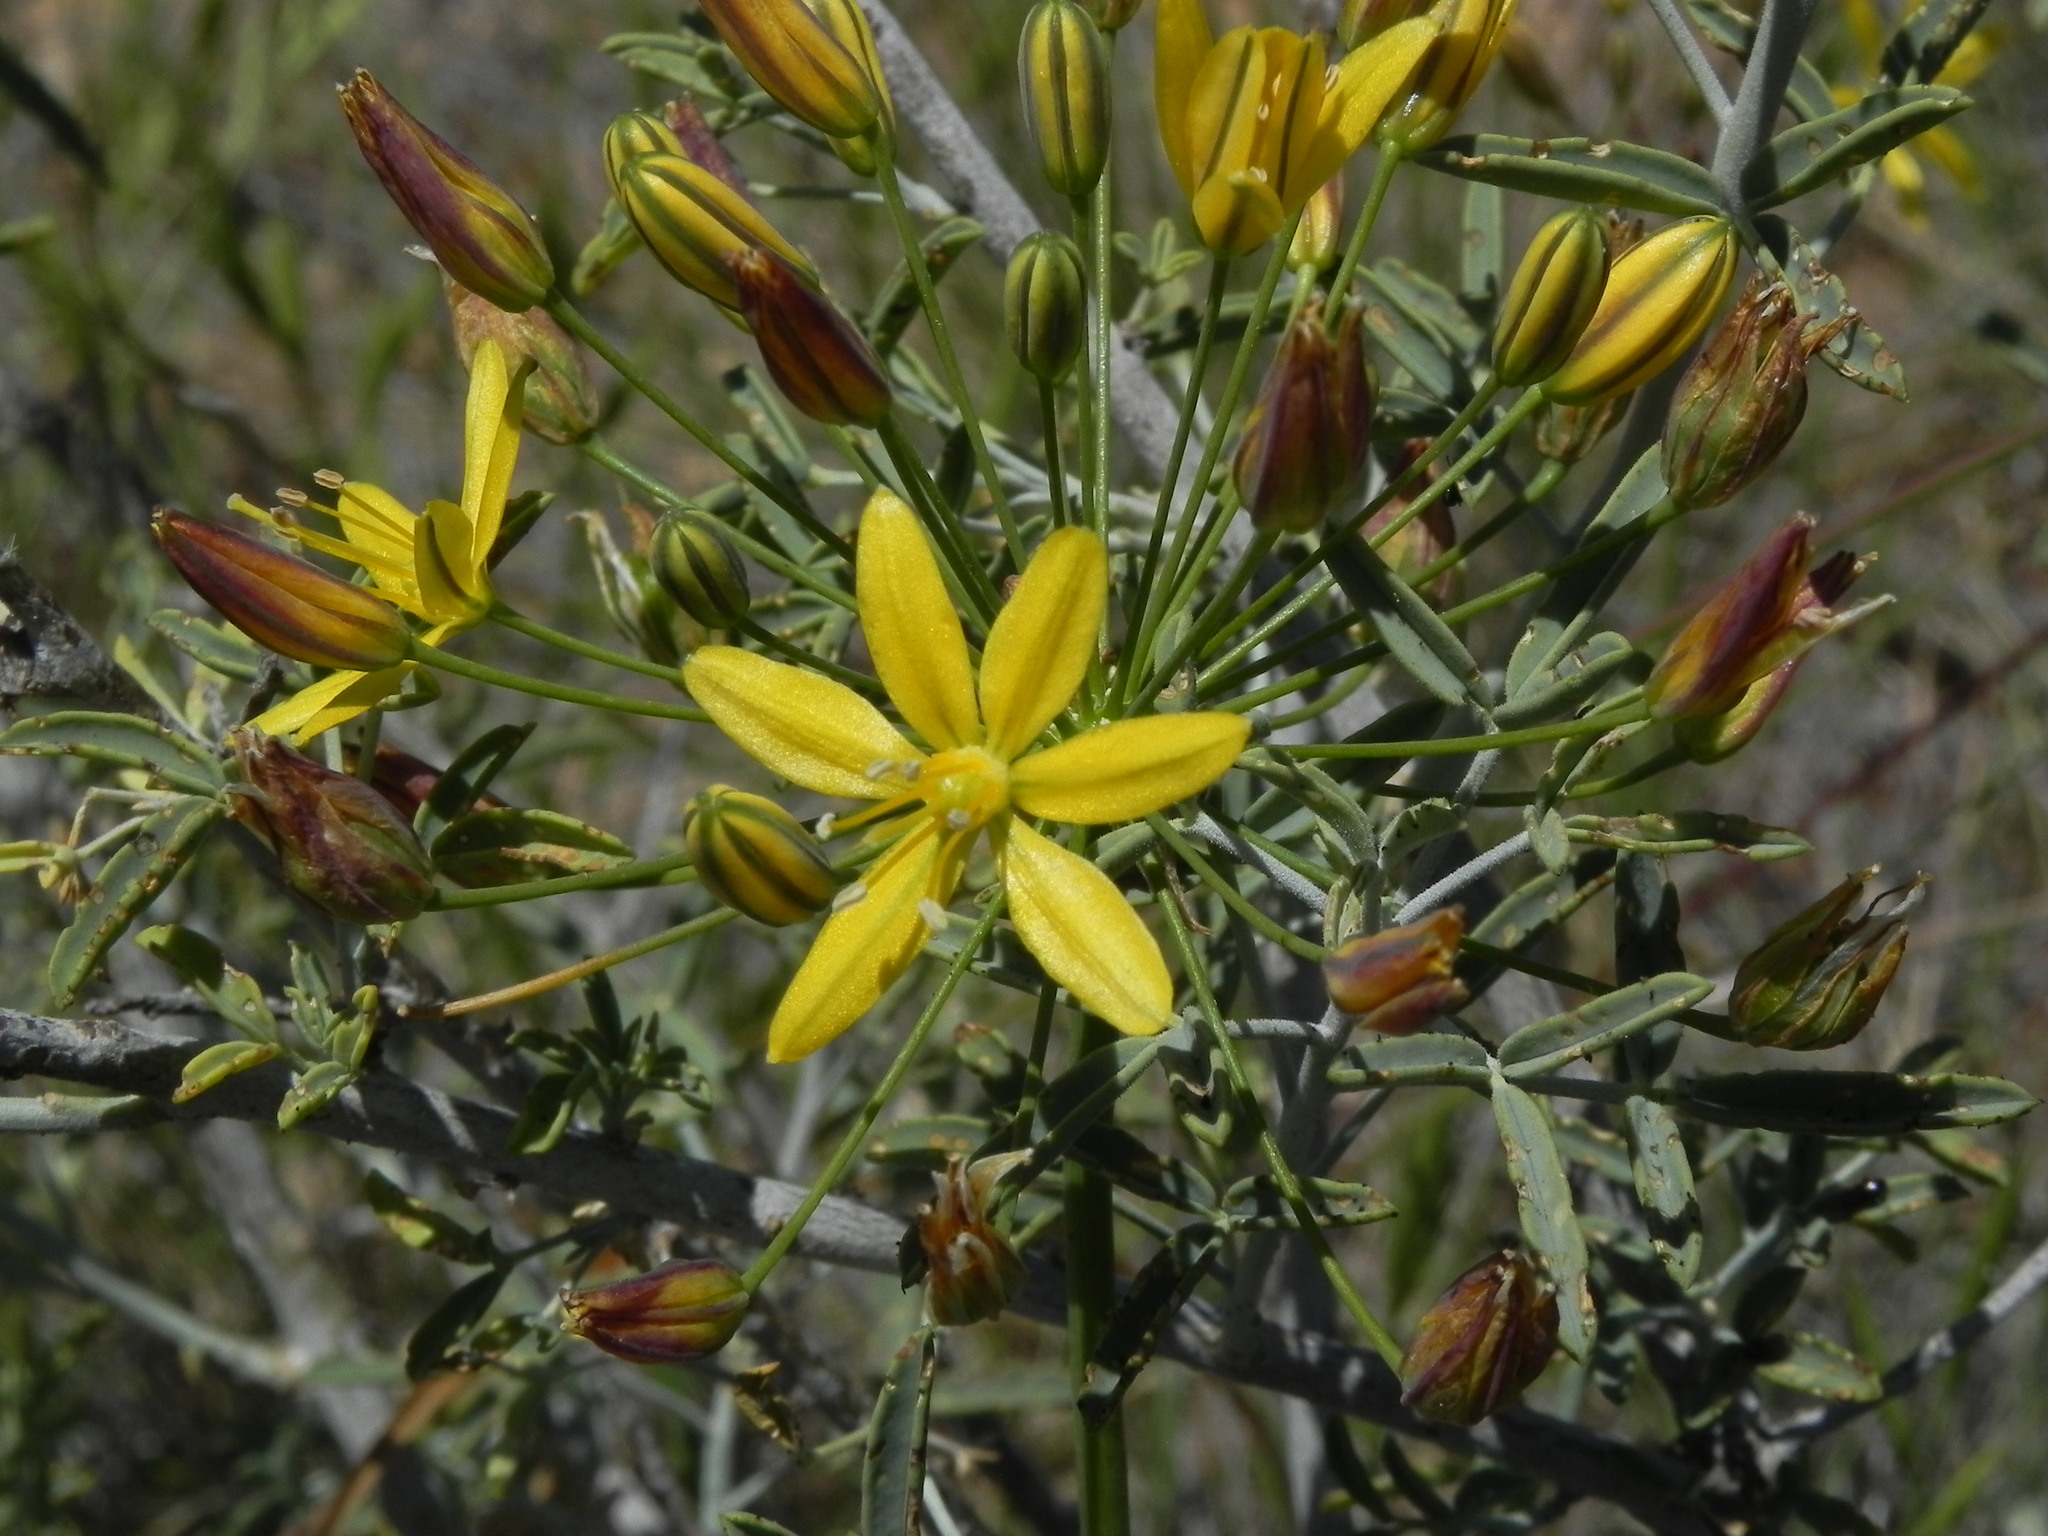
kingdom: Plantae
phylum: Tracheophyta
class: Liliopsida
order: Asparagales
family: Asparagaceae
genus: Bloomeria
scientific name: Bloomeria crocea
